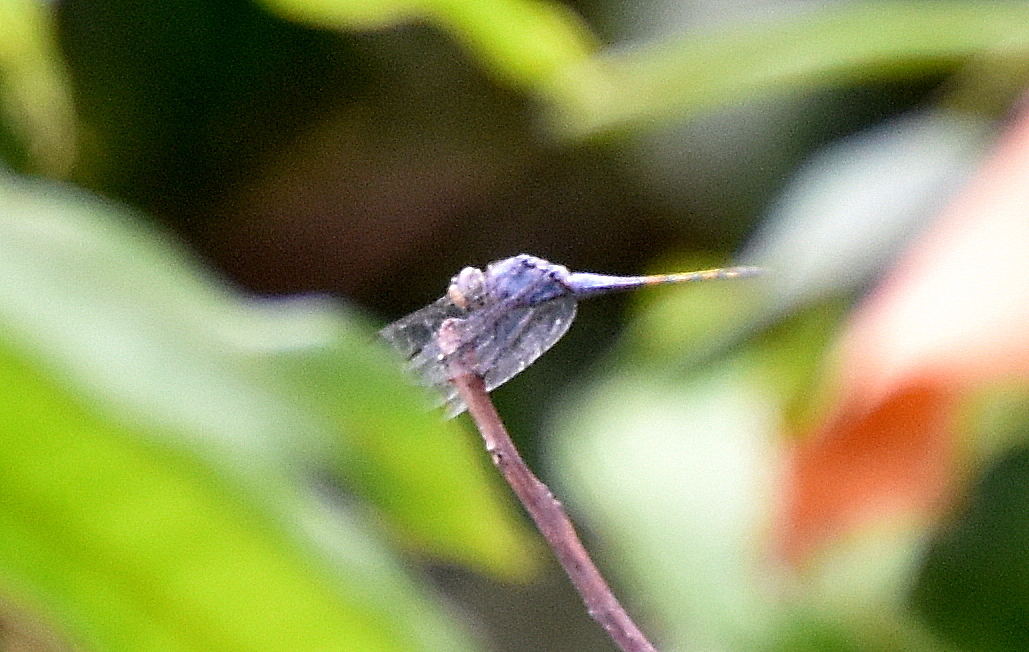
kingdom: Animalia
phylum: Arthropoda
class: Insecta
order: Odonata
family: Libellulidae
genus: Potamarcha
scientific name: Potamarcha congener
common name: Blue chaser
